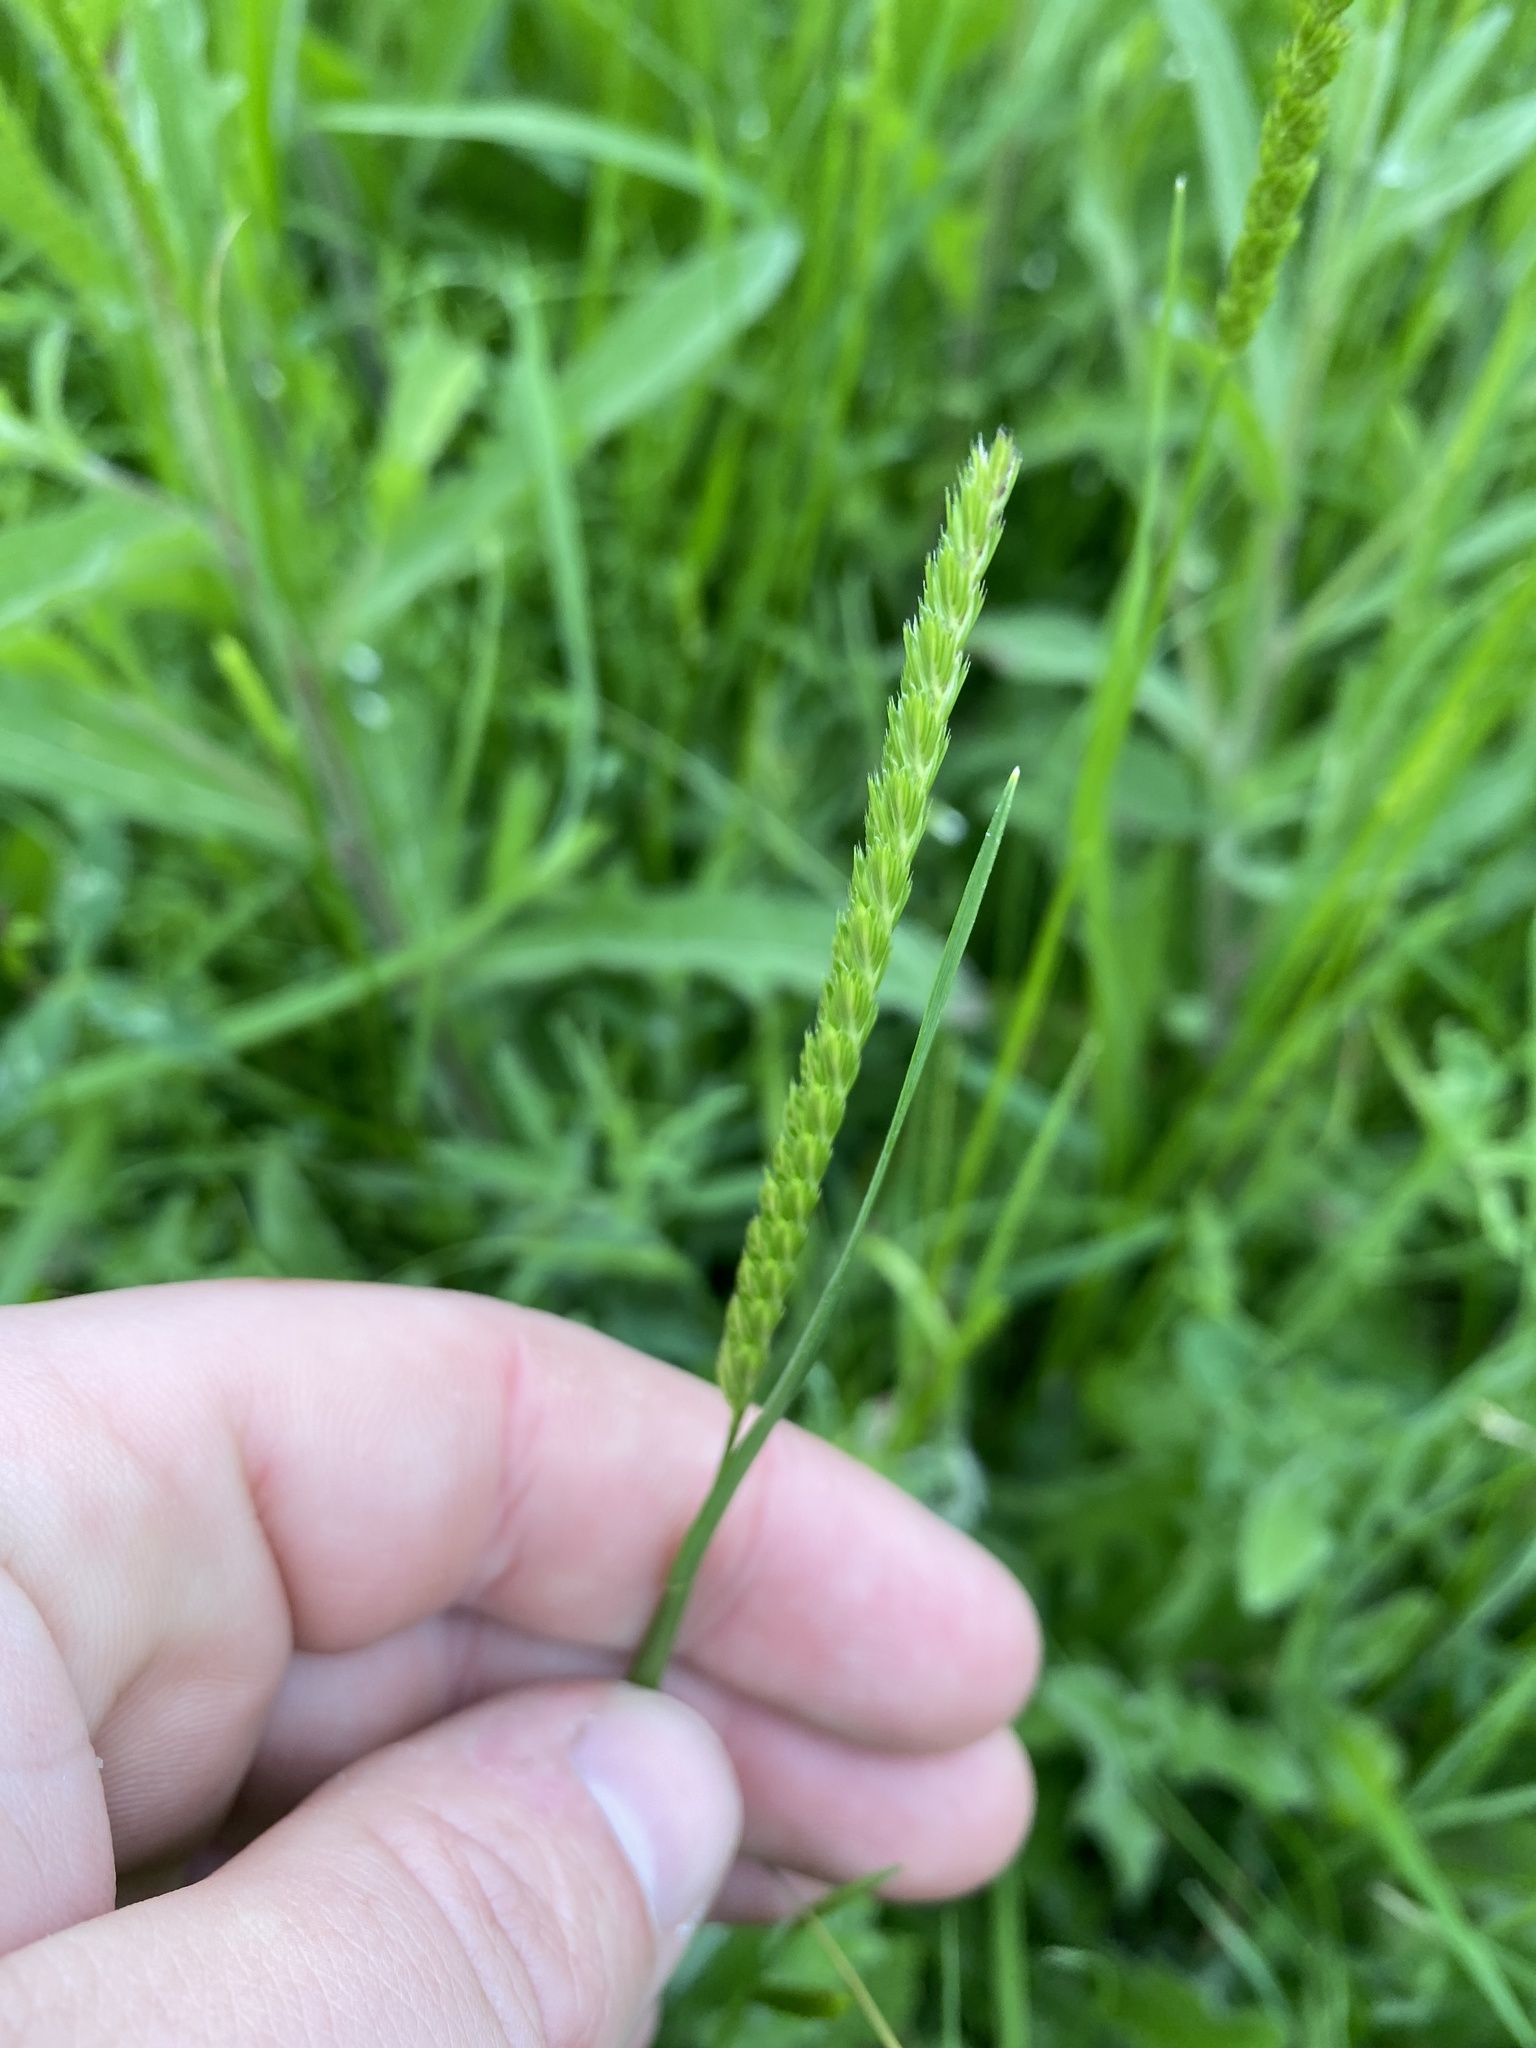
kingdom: Plantae
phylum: Tracheophyta
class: Liliopsida
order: Poales
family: Poaceae
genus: Cynosurus
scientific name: Cynosurus cristatus
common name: Crested dog's-tail
